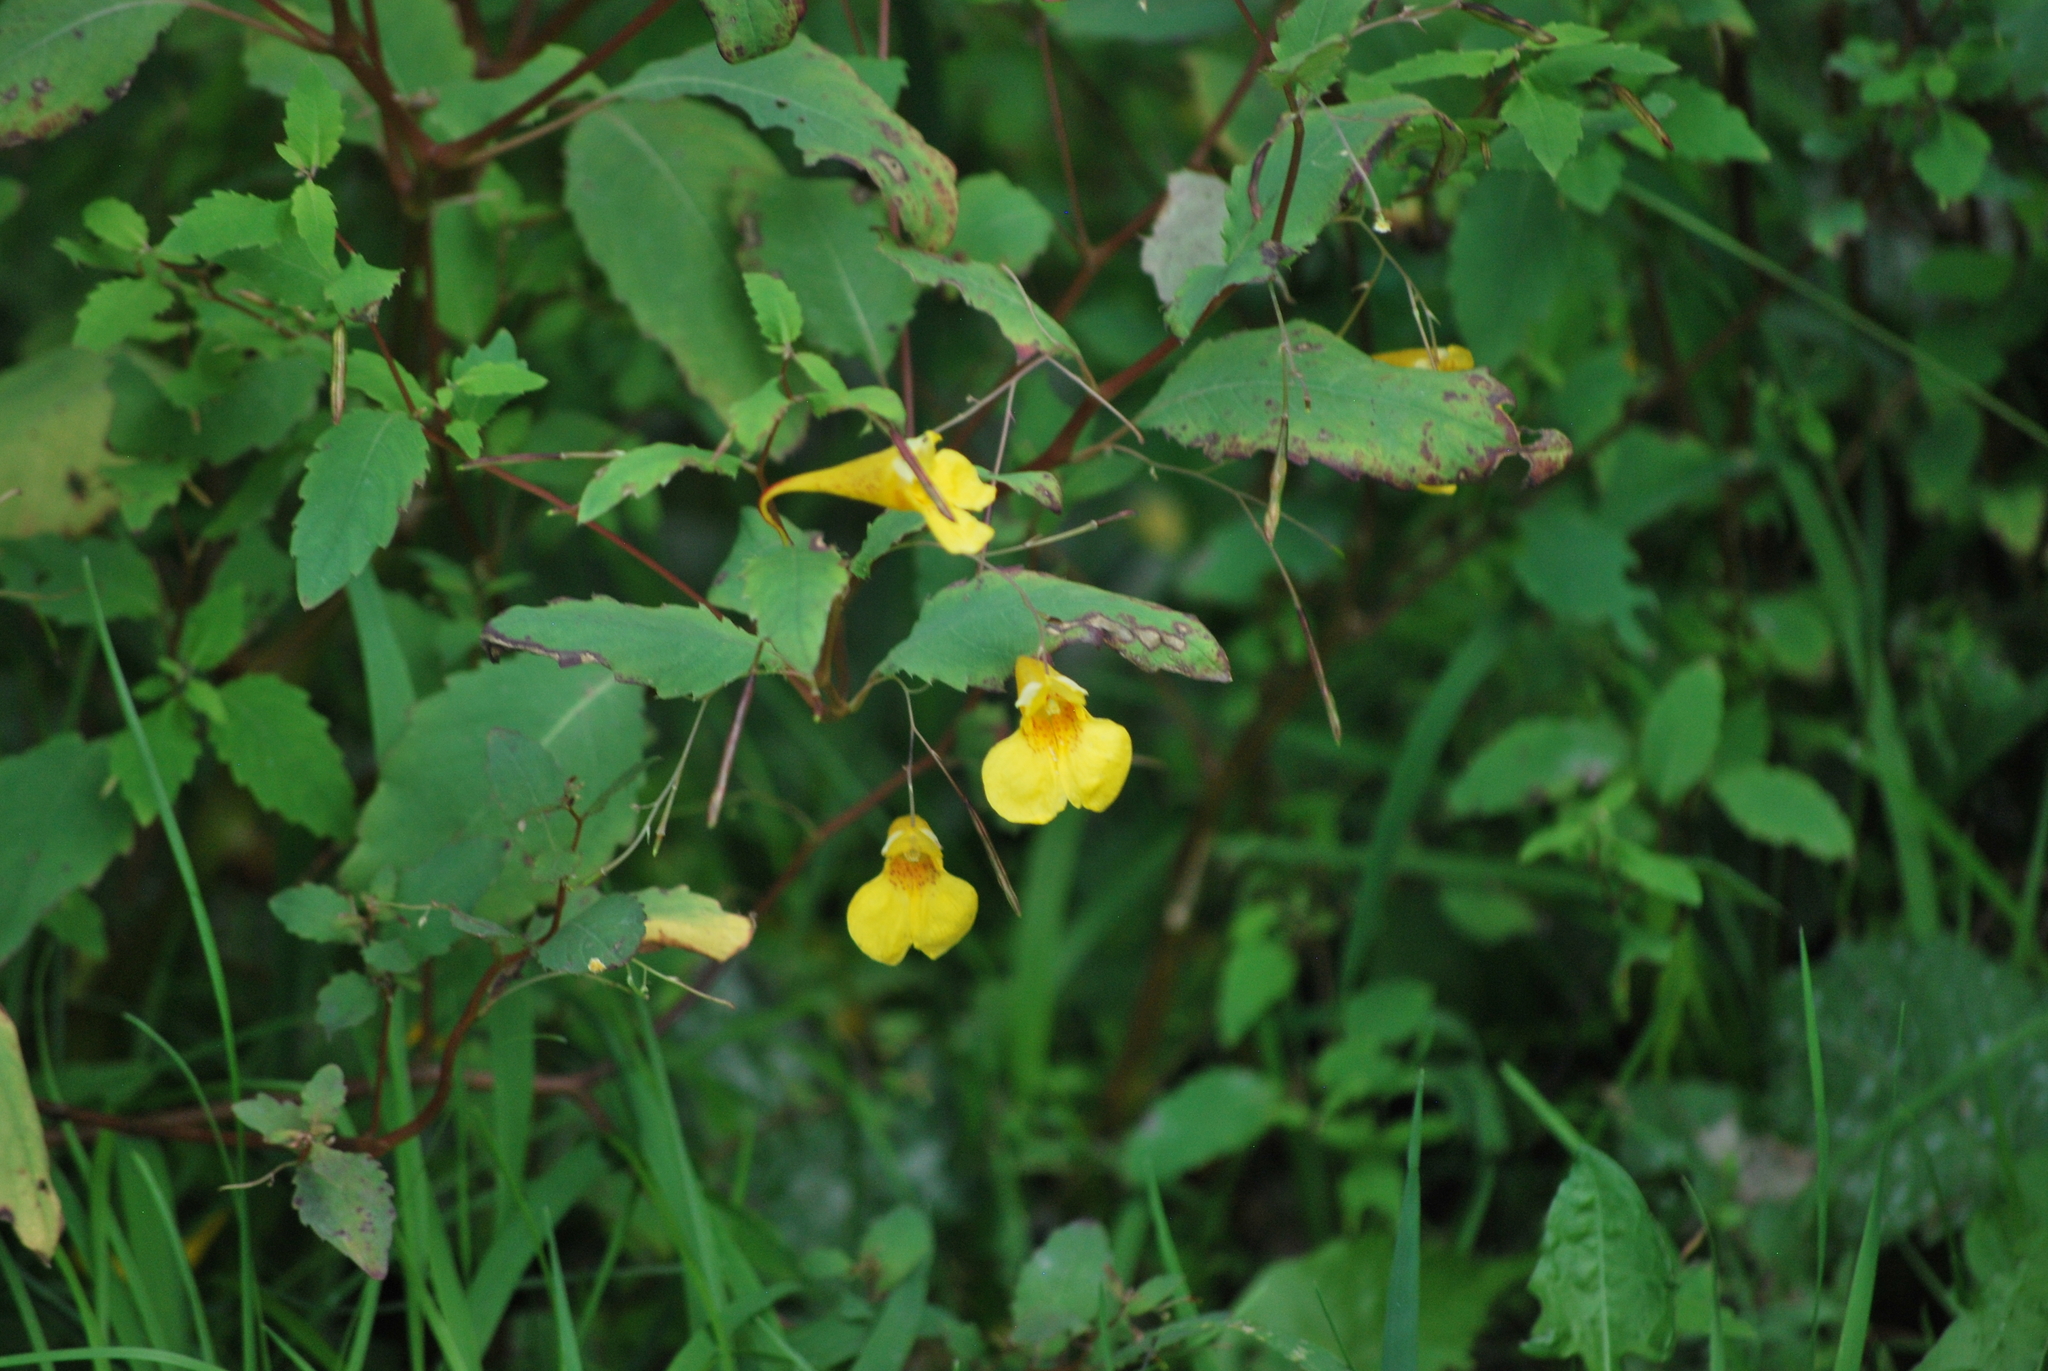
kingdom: Plantae
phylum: Tracheophyta
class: Magnoliopsida
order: Ericales
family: Balsaminaceae
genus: Impatiens
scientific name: Impatiens noli-tangere
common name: Touch-me-not balsam
